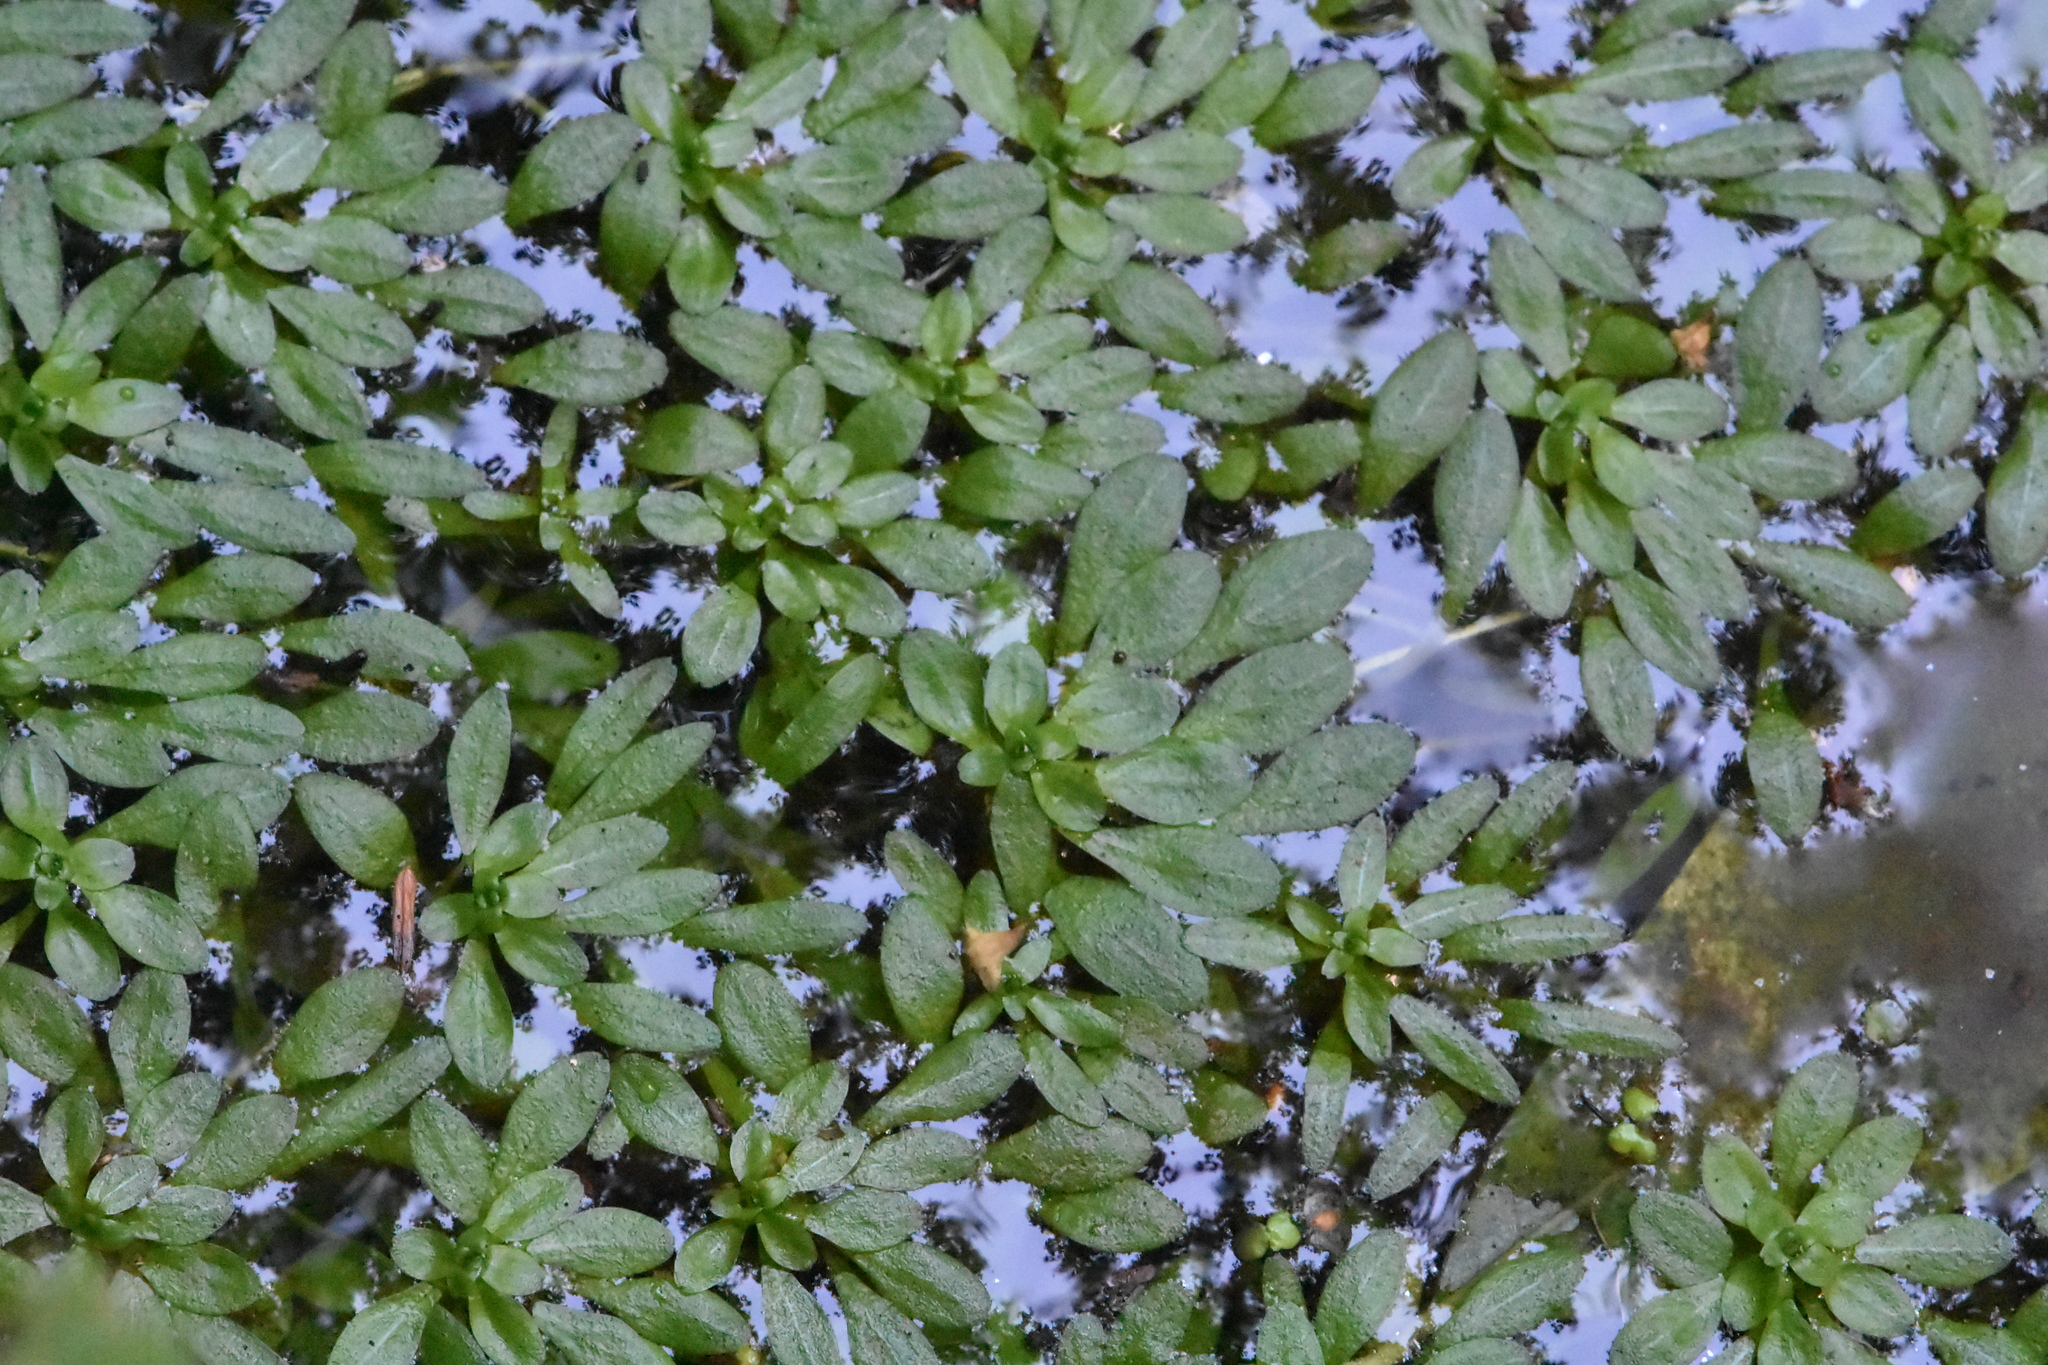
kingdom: Plantae
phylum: Tracheophyta
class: Magnoliopsida
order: Lamiales
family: Plantaginaceae
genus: Callitriche
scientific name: Callitriche
